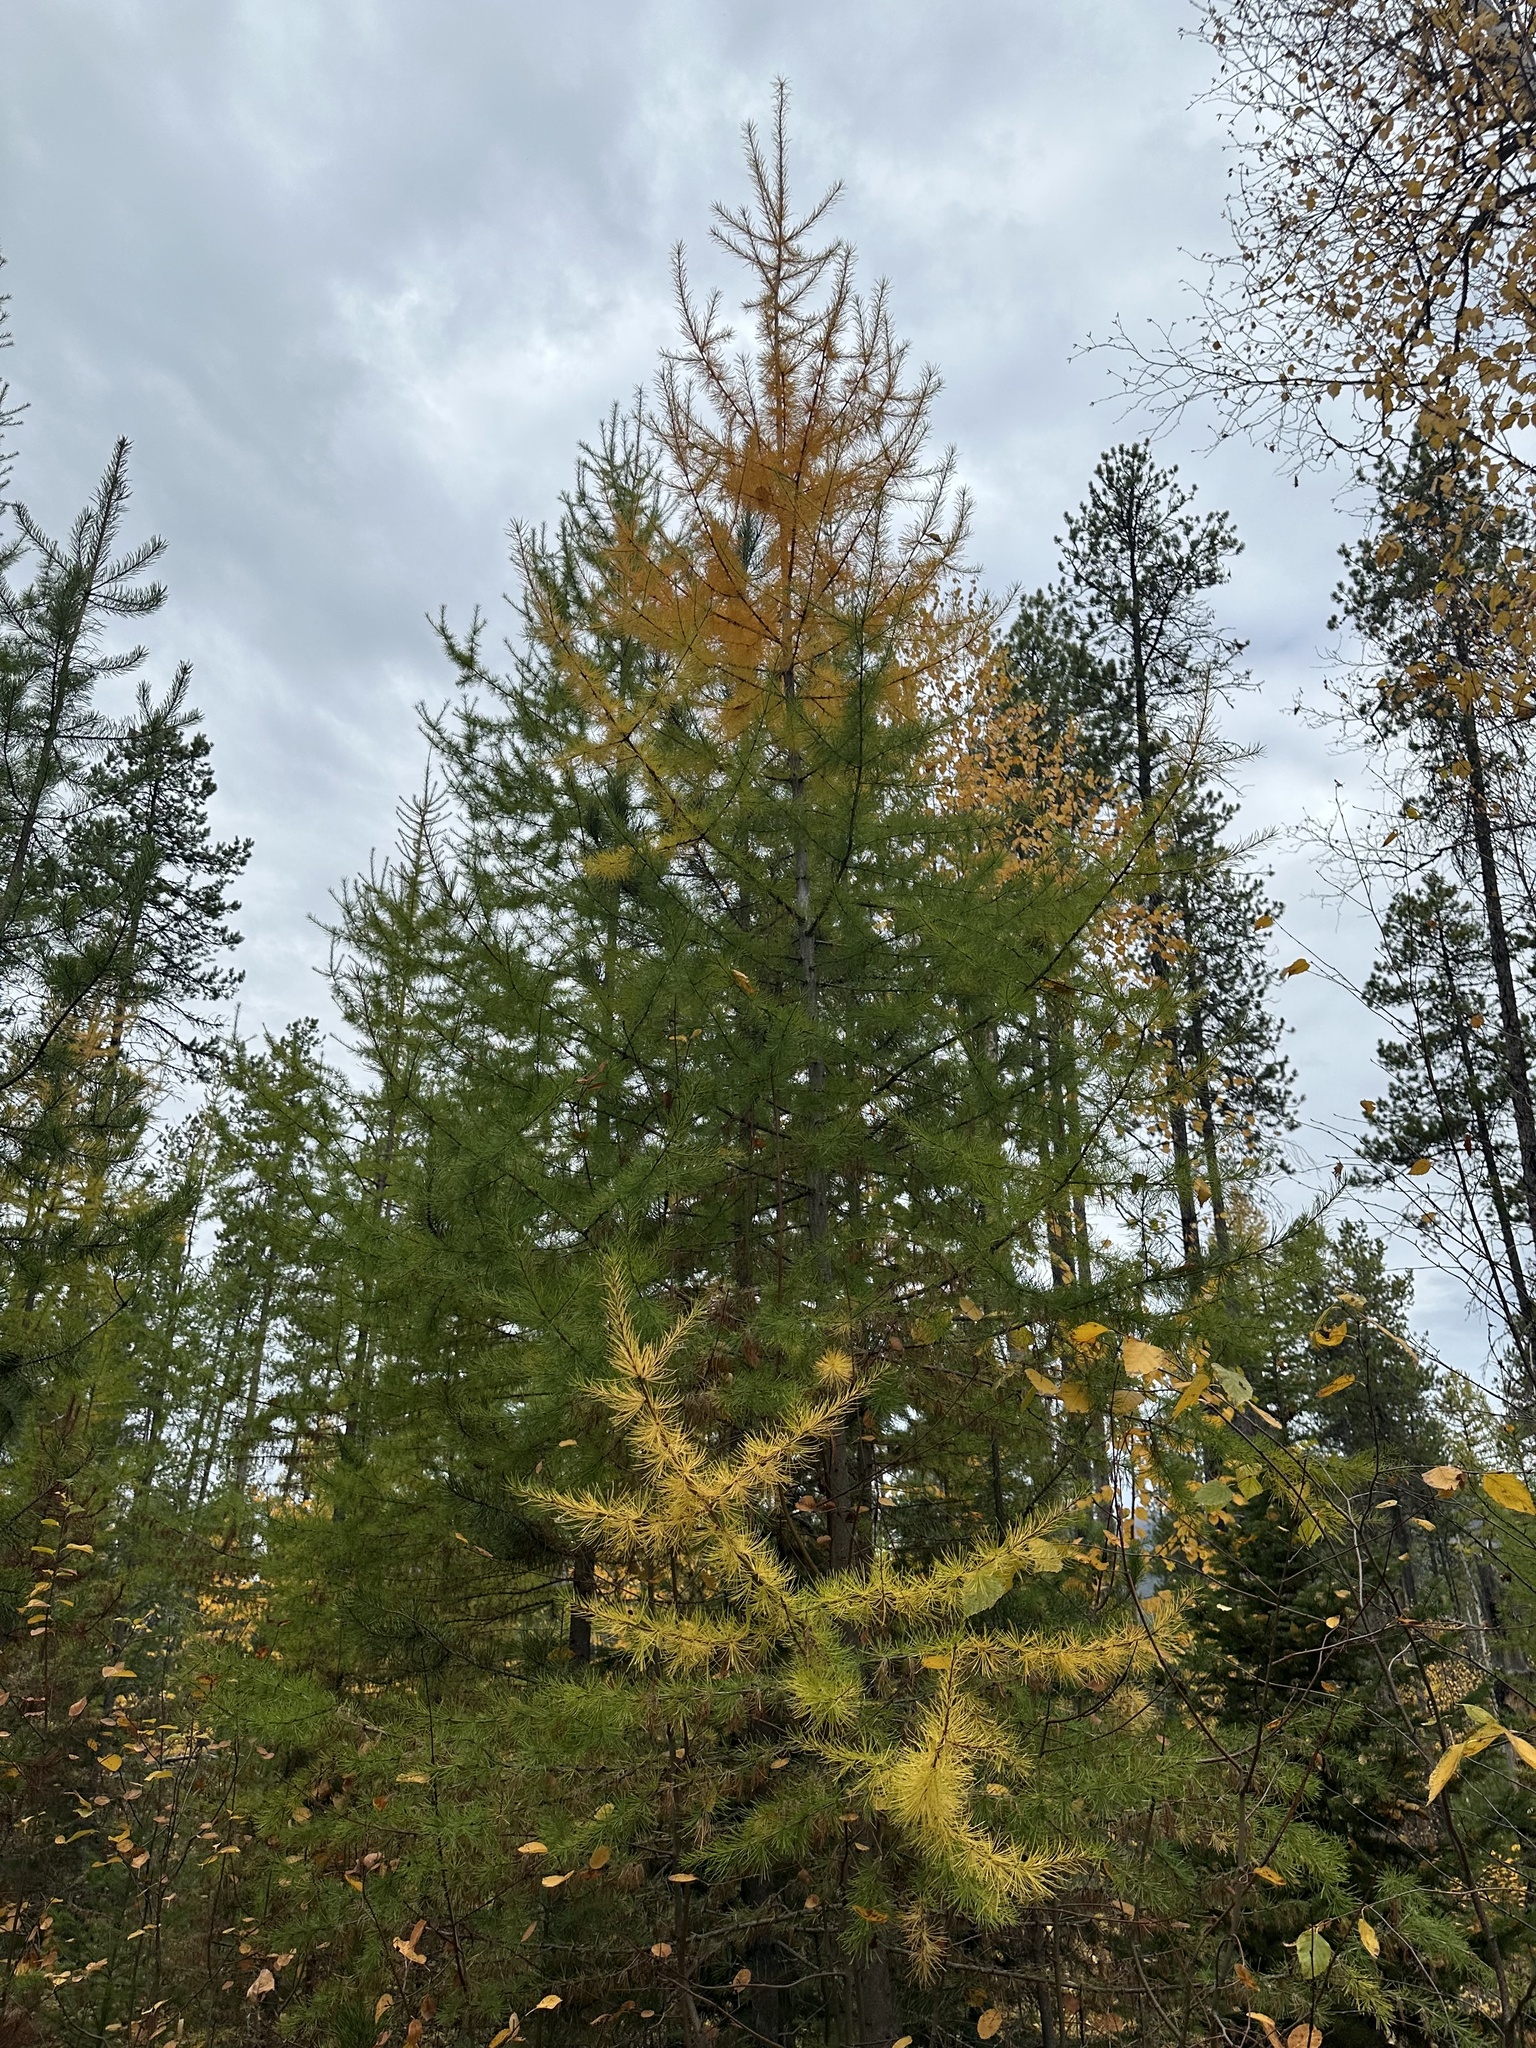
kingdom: Plantae
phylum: Tracheophyta
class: Pinopsida
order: Pinales
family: Pinaceae
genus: Larix
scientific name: Larix occidentalis
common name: Western larch
